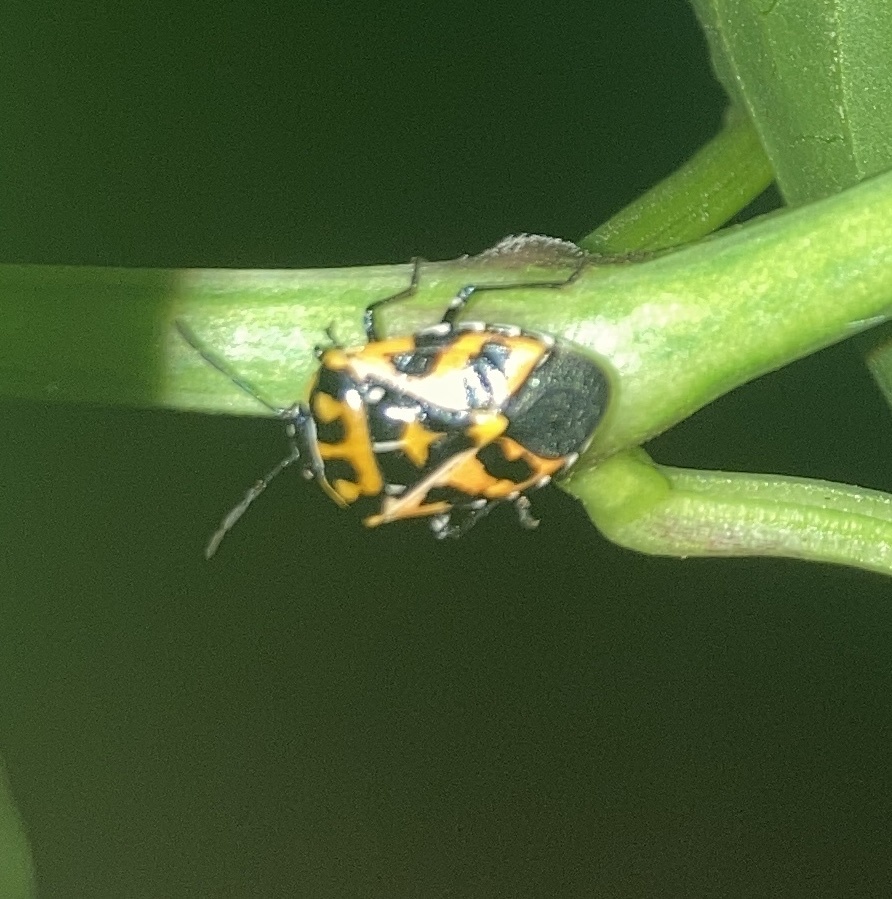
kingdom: Animalia
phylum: Arthropoda
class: Insecta
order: Hemiptera
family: Pentatomidae
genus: Murgantia
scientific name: Murgantia histrionica
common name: Harlequin bug
